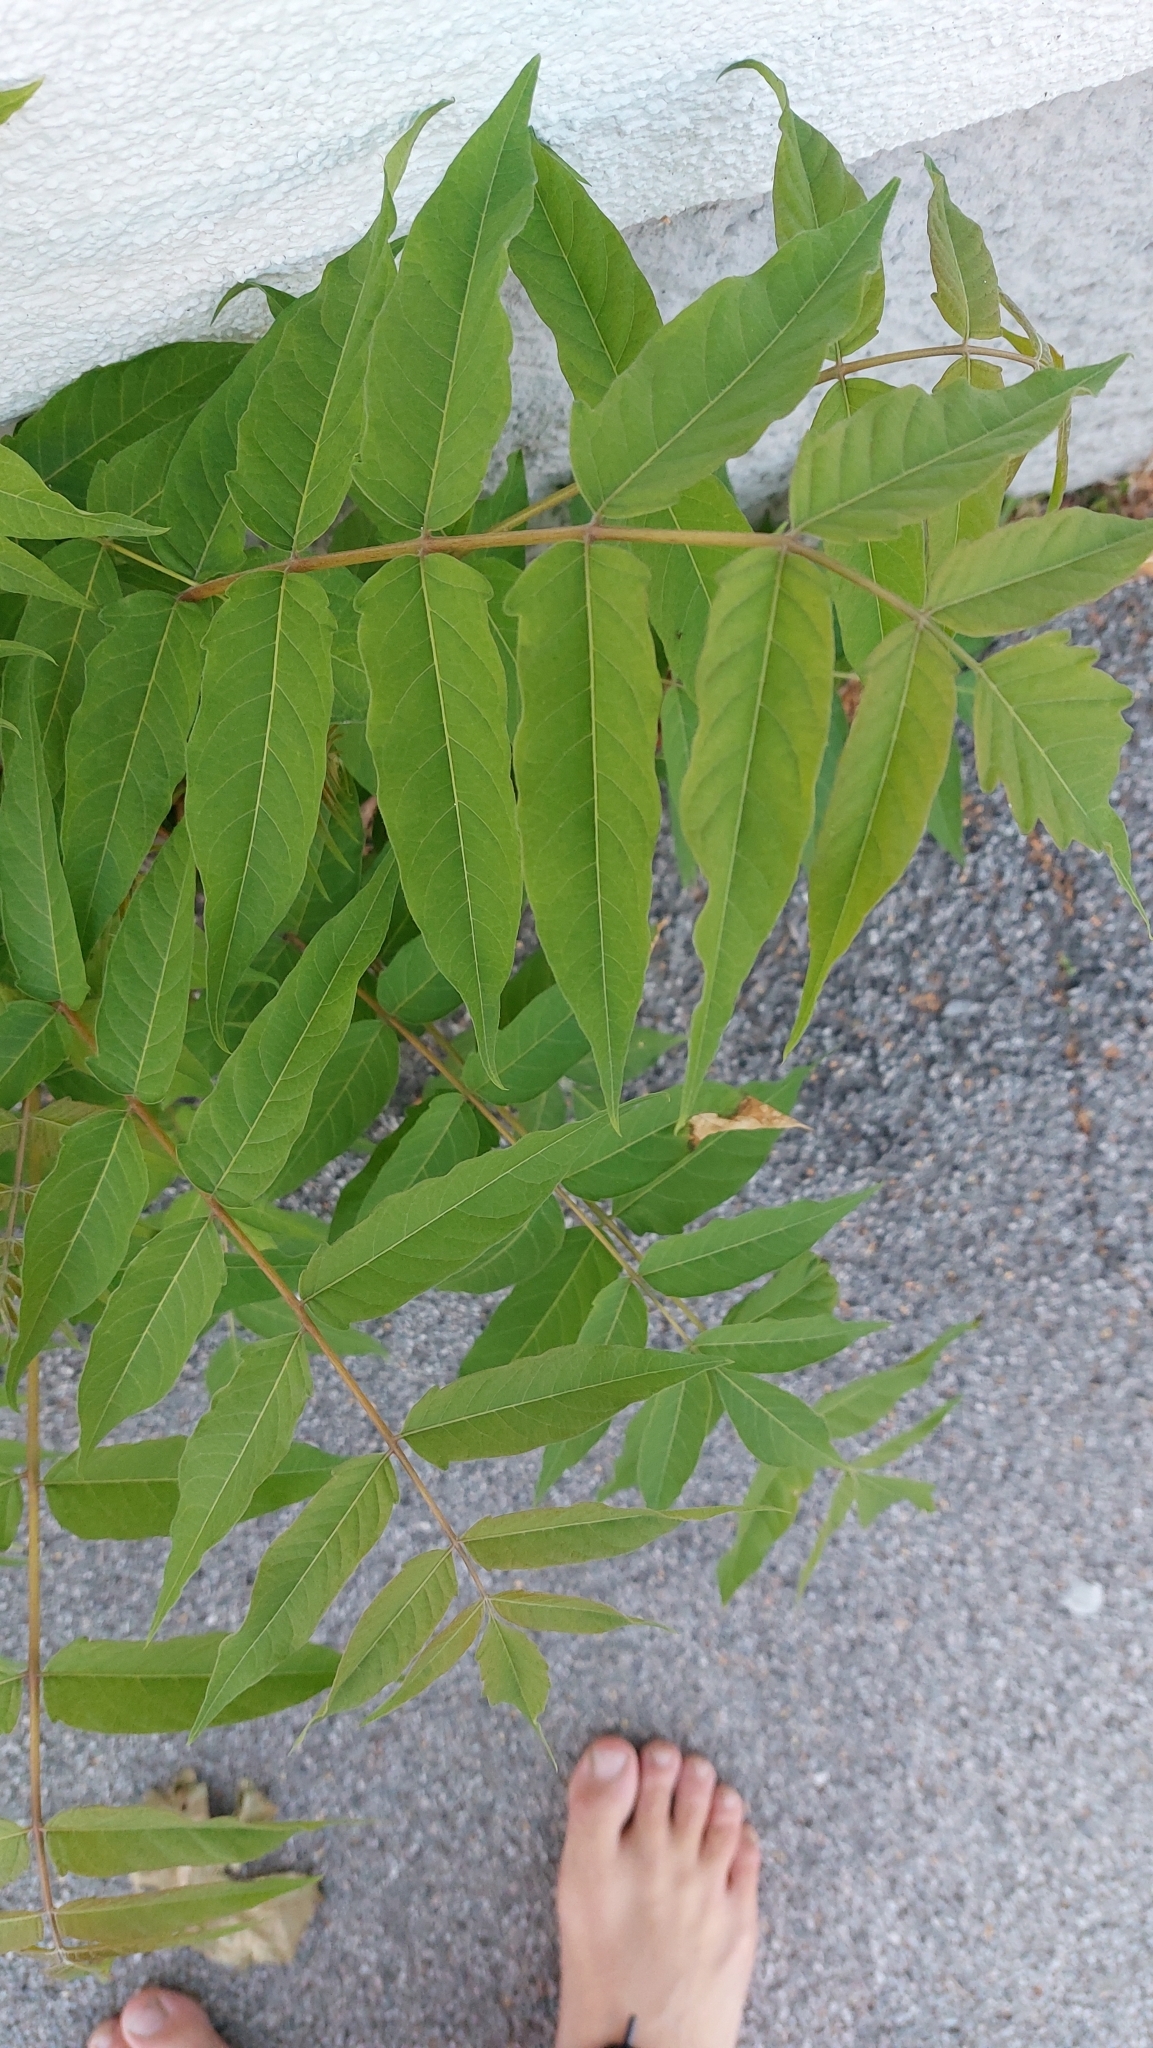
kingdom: Plantae
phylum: Tracheophyta
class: Magnoliopsida
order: Sapindales
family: Simaroubaceae
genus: Ailanthus
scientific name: Ailanthus altissima
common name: Tree-of-heaven
